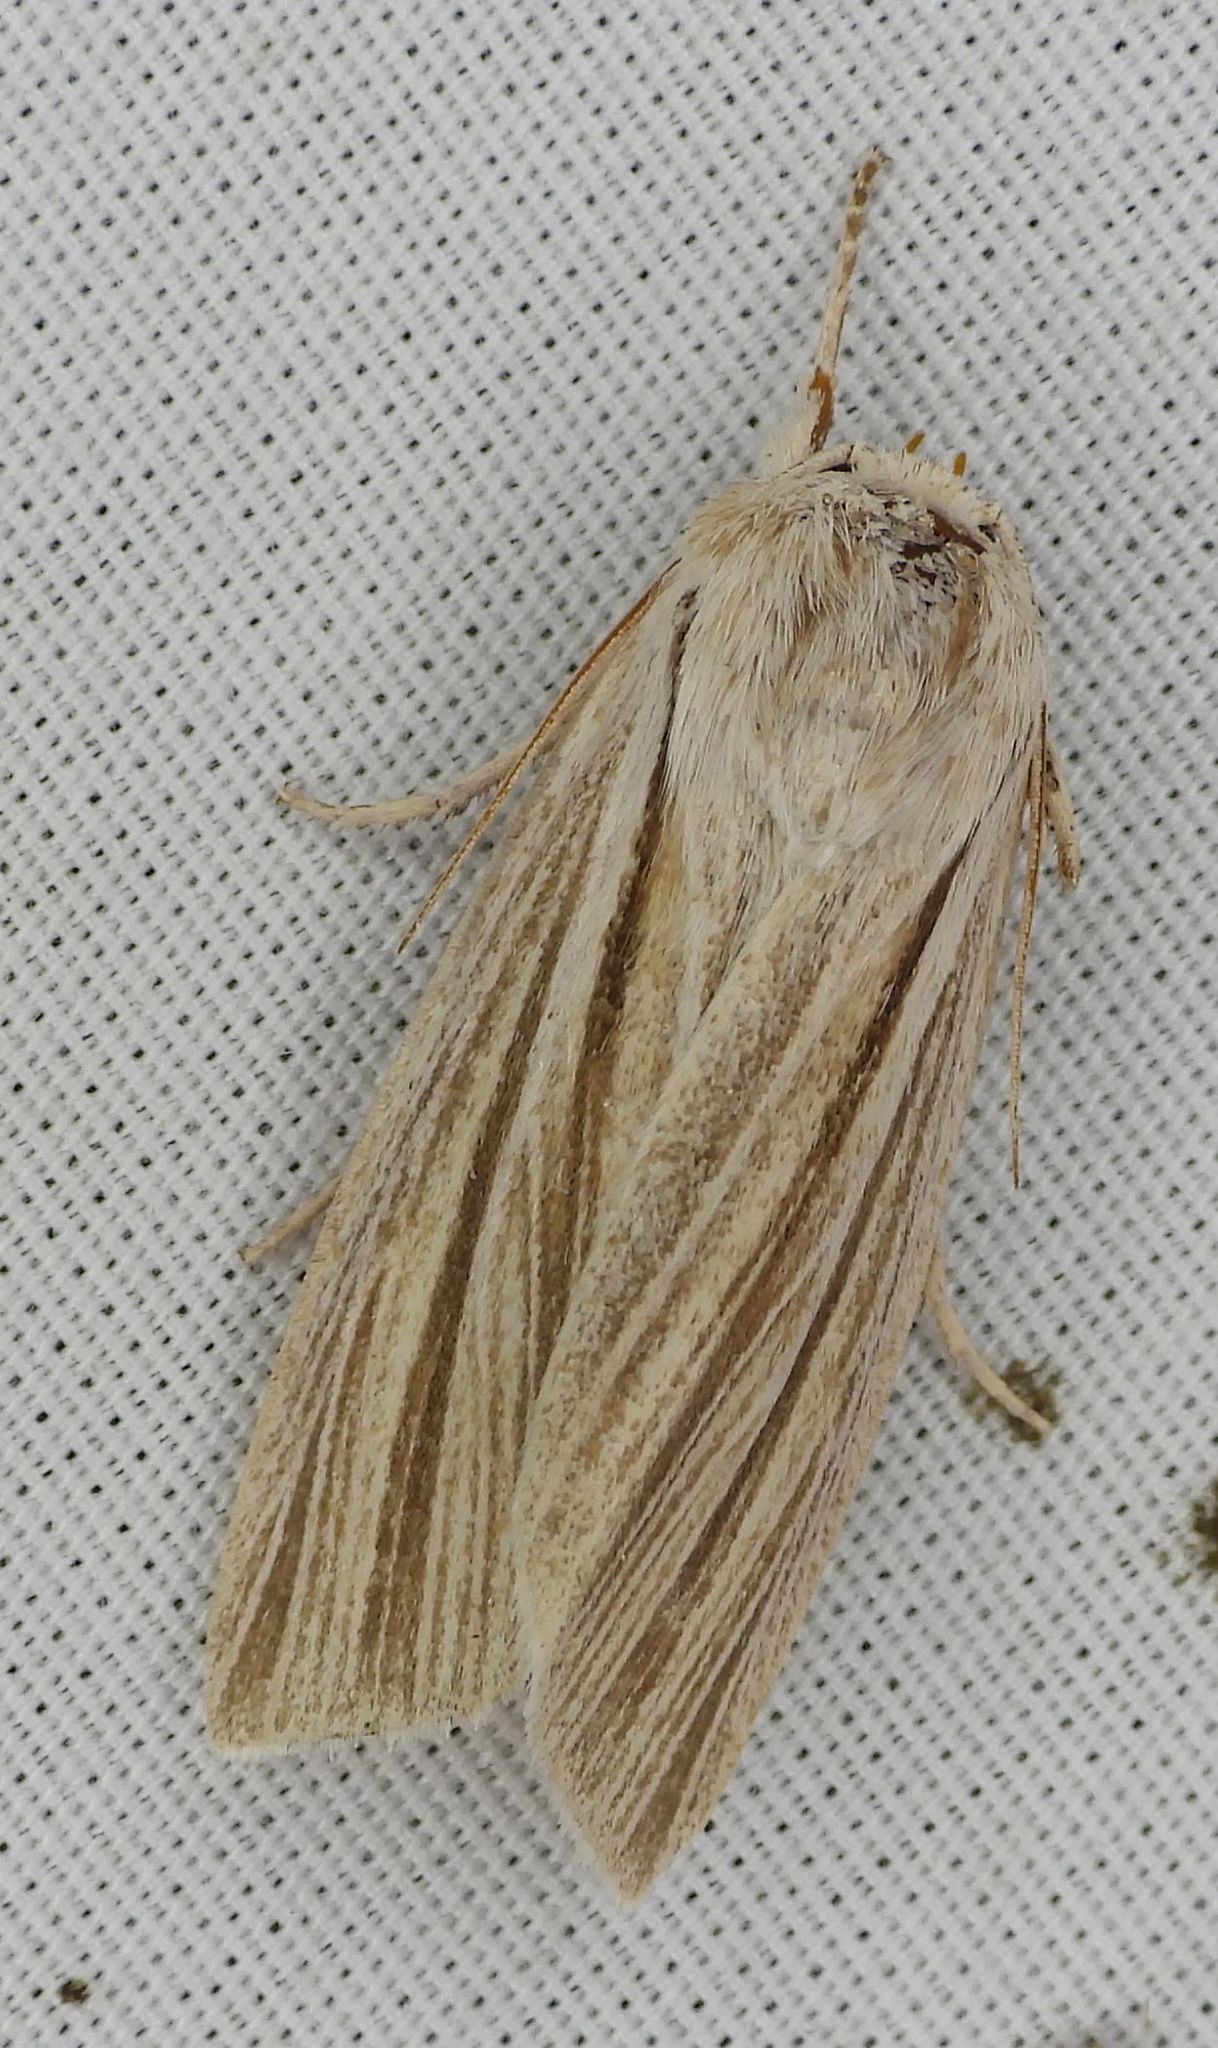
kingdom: Animalia
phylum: Arthropoda
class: Insecta
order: Lepidoptera
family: Noctuidae
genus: Acronicta
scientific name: Acronicta insularis
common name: Henry's marsh moth
